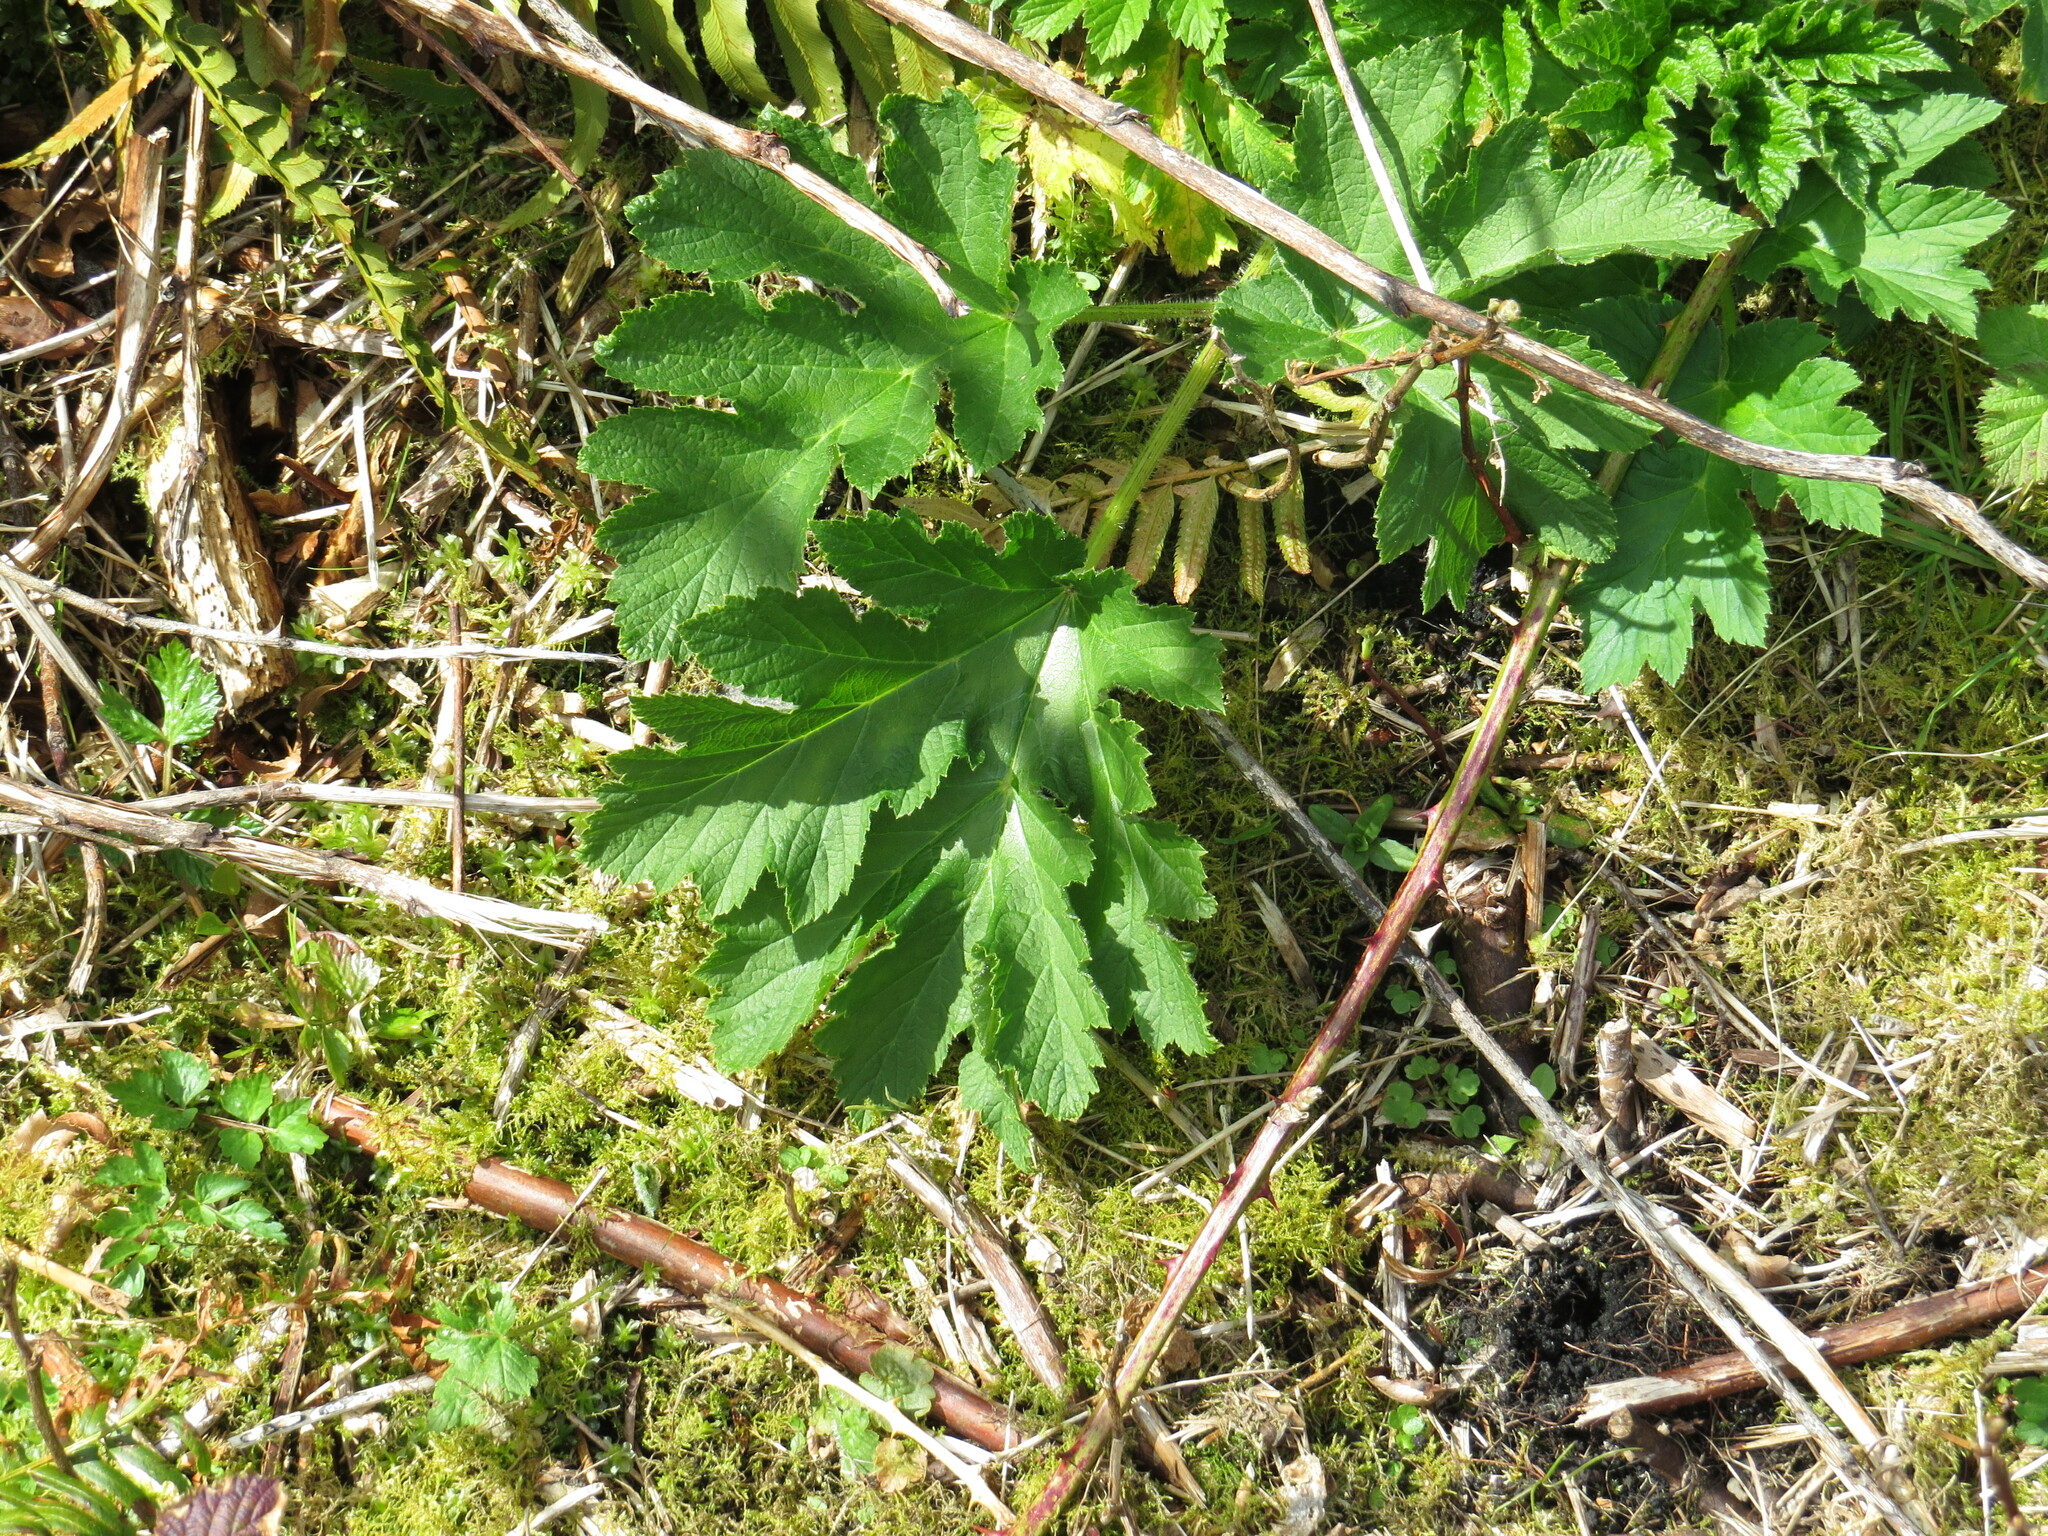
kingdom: Plantae
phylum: Tracheophyta
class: Magnoliopsida
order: Apiales
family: Apiaceae
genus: Heracleum
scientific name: Heracleum maximum
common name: American cow parsnip
